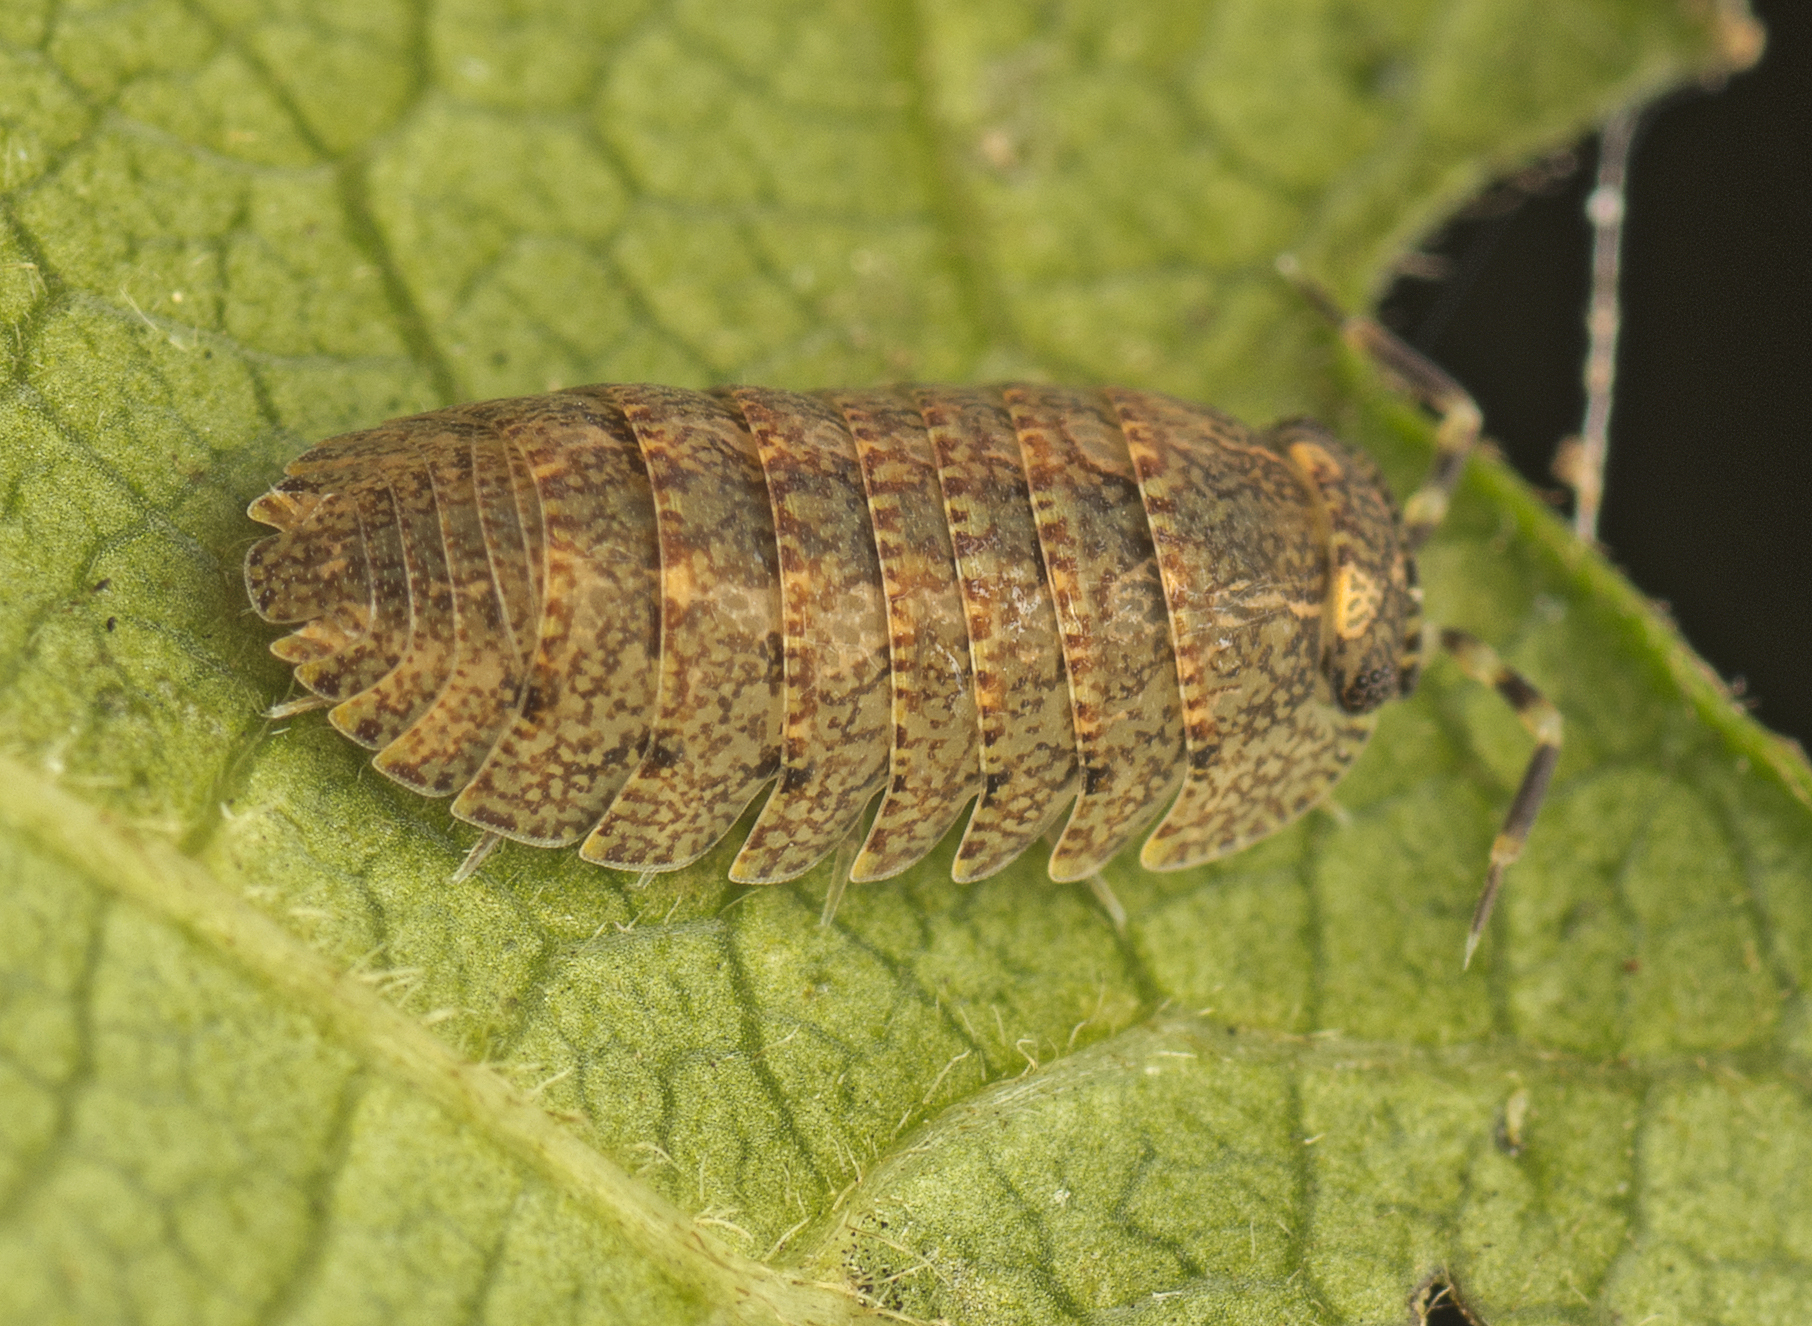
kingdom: Animalia
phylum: Arthropoda
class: Malacostraca
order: Isopoda
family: Armadillidae
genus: Cubaris
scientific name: Cubaris marmorata
